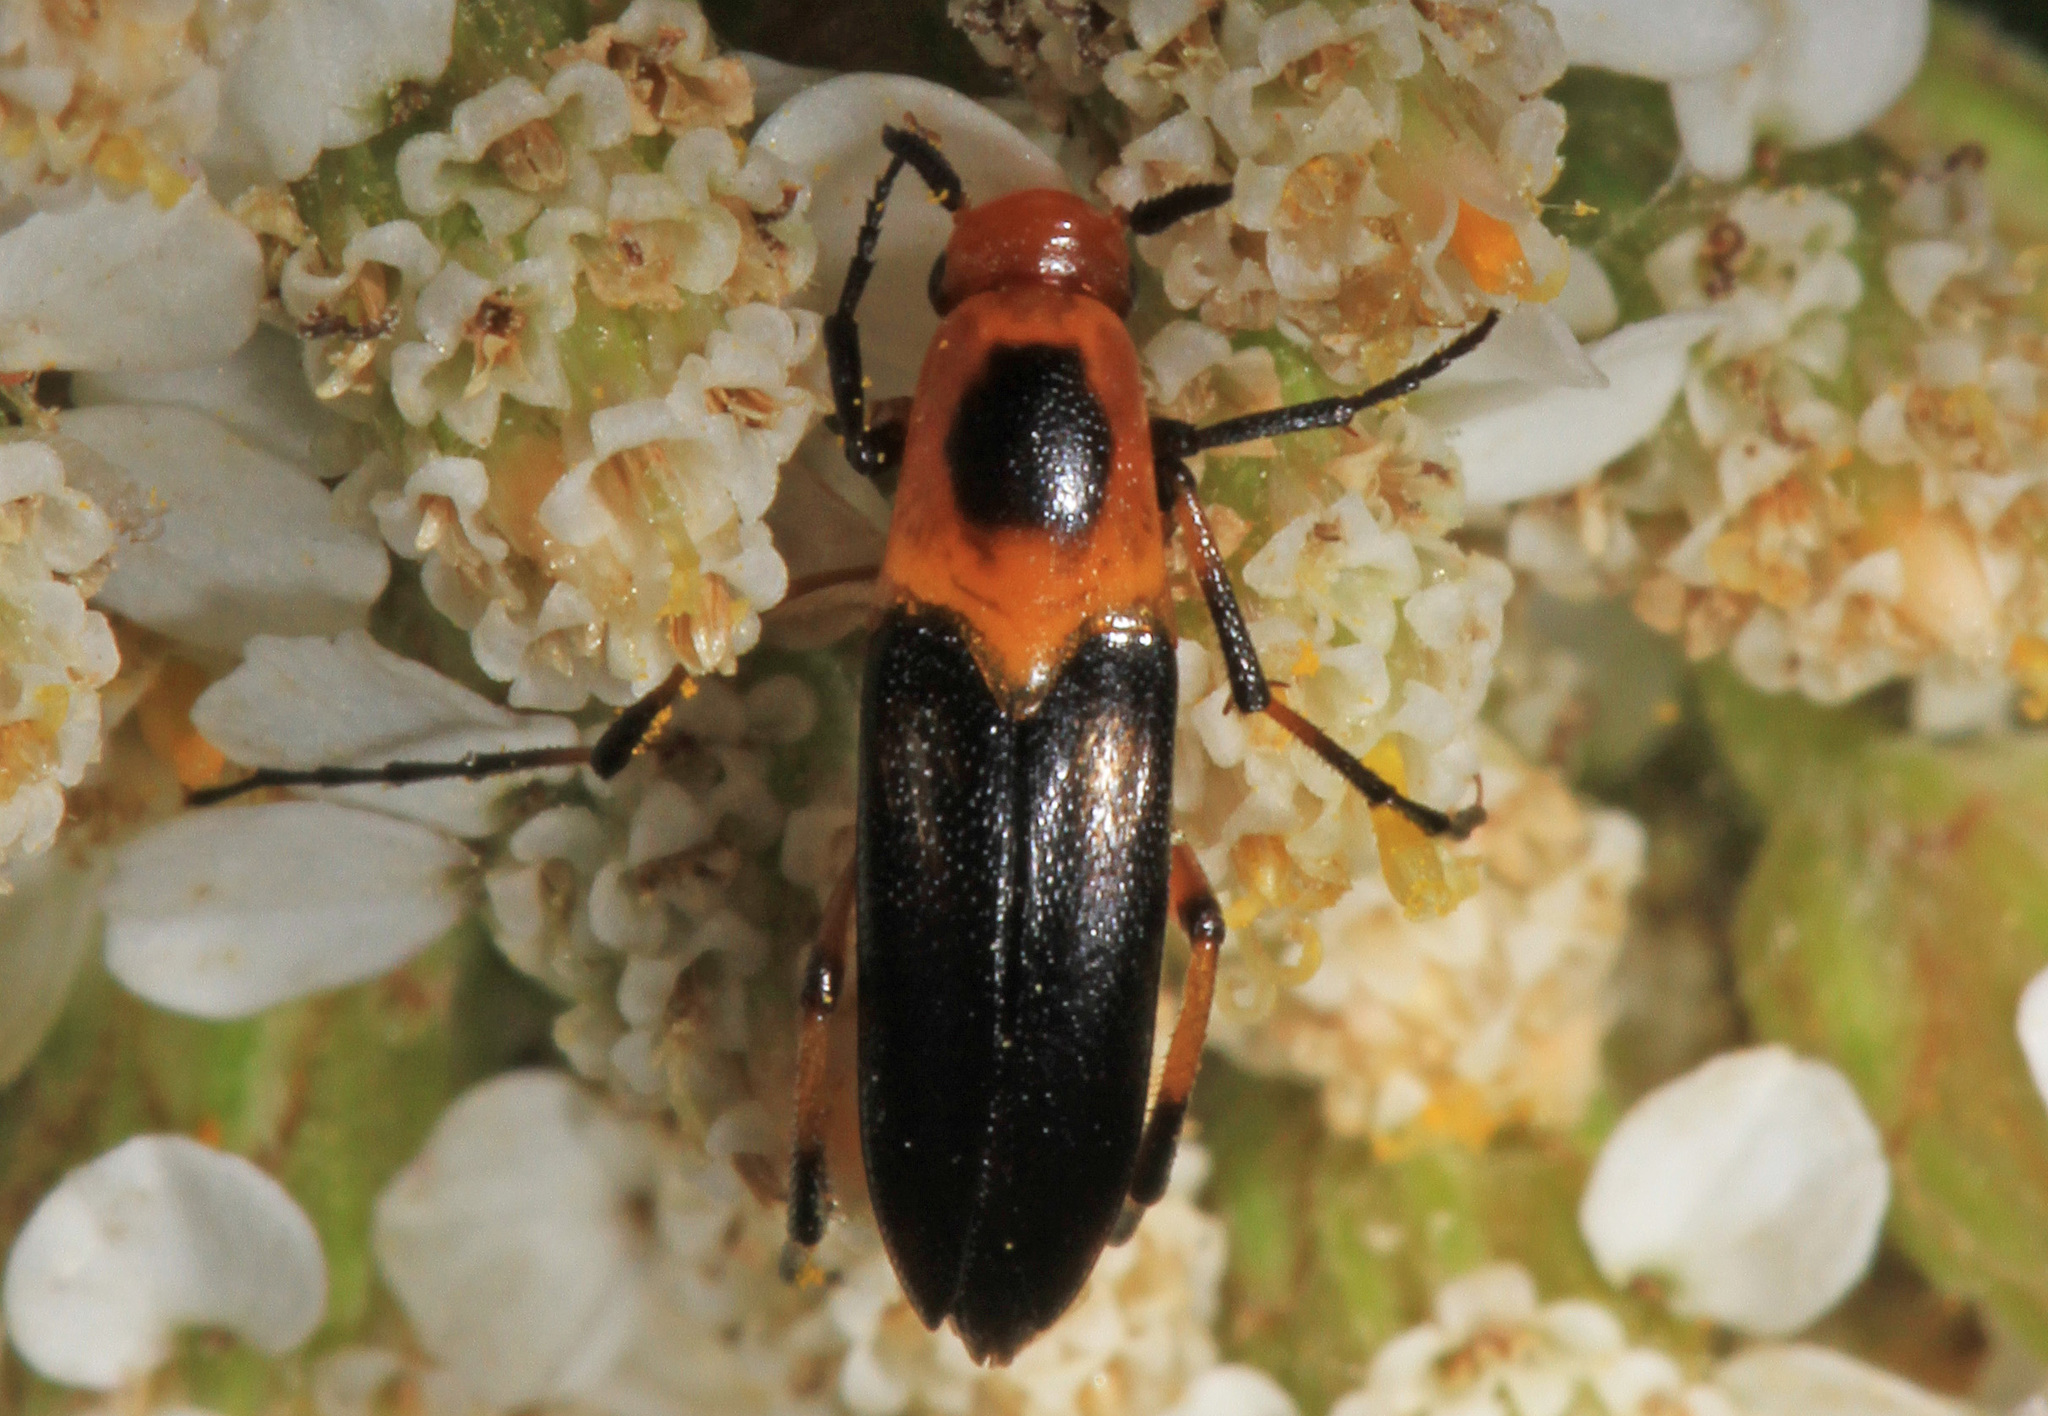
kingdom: Animalia
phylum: Arthropoda
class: Insecta
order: Coleoptera
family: Ripiphoridae
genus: Macrosiagon
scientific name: Macrosiagon limbatum
